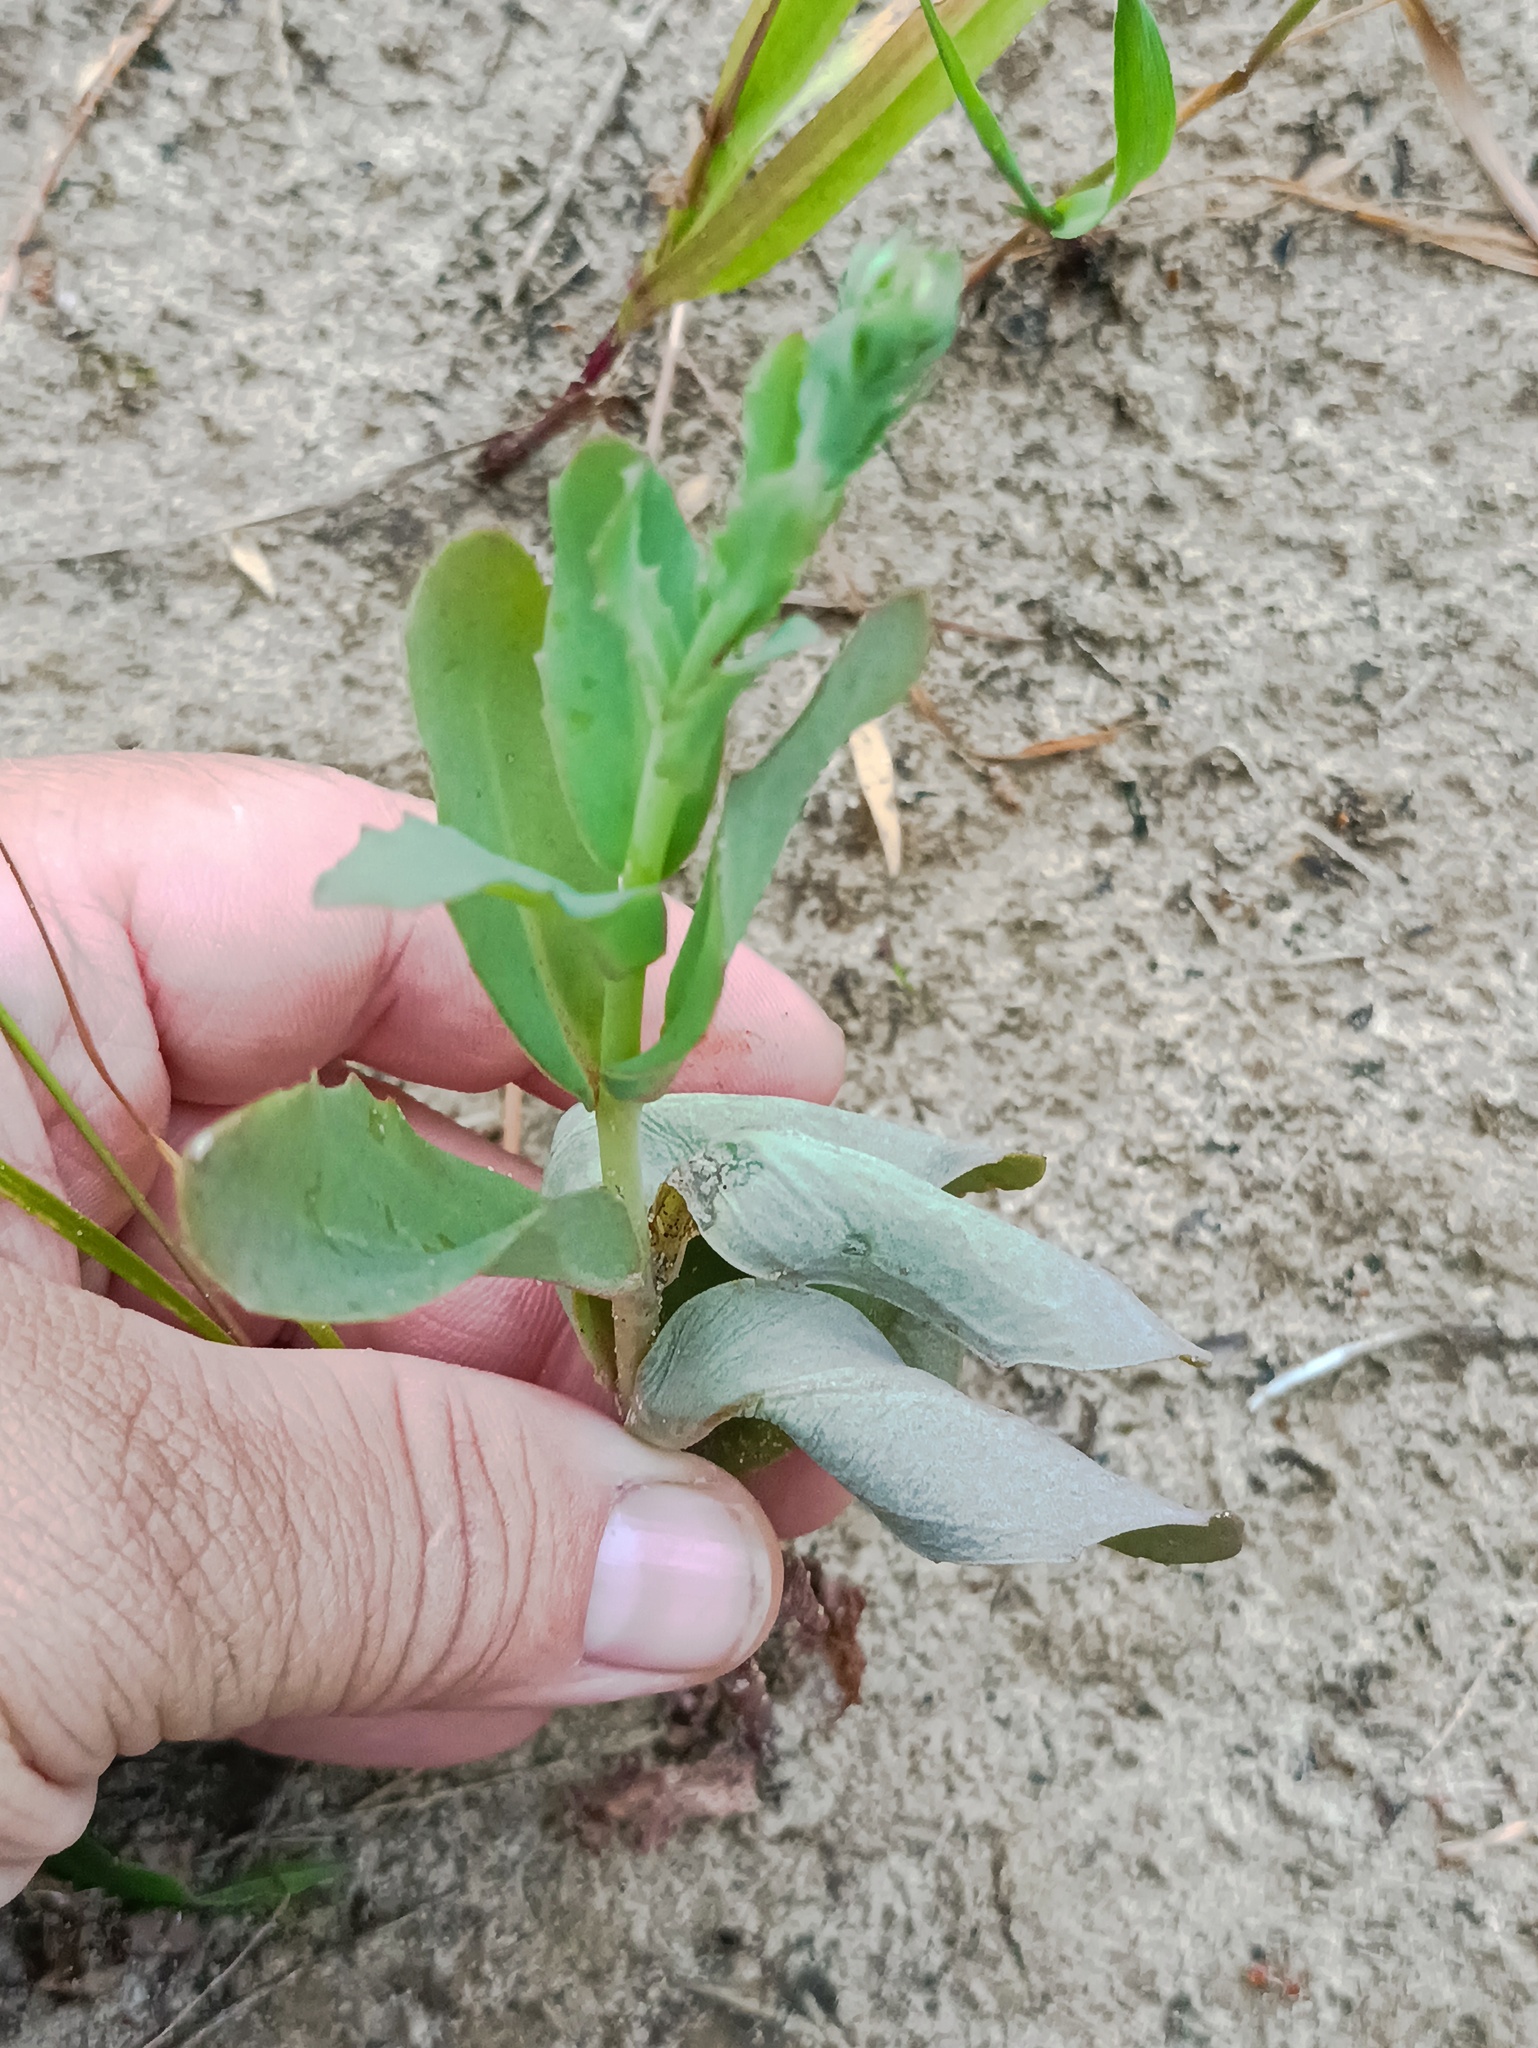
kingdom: Plantae
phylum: Tracheophyta
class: Magnoliopsida
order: Saxifragales
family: Crassulaceae
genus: Hylotelephium
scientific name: Hylotelephium maximum
